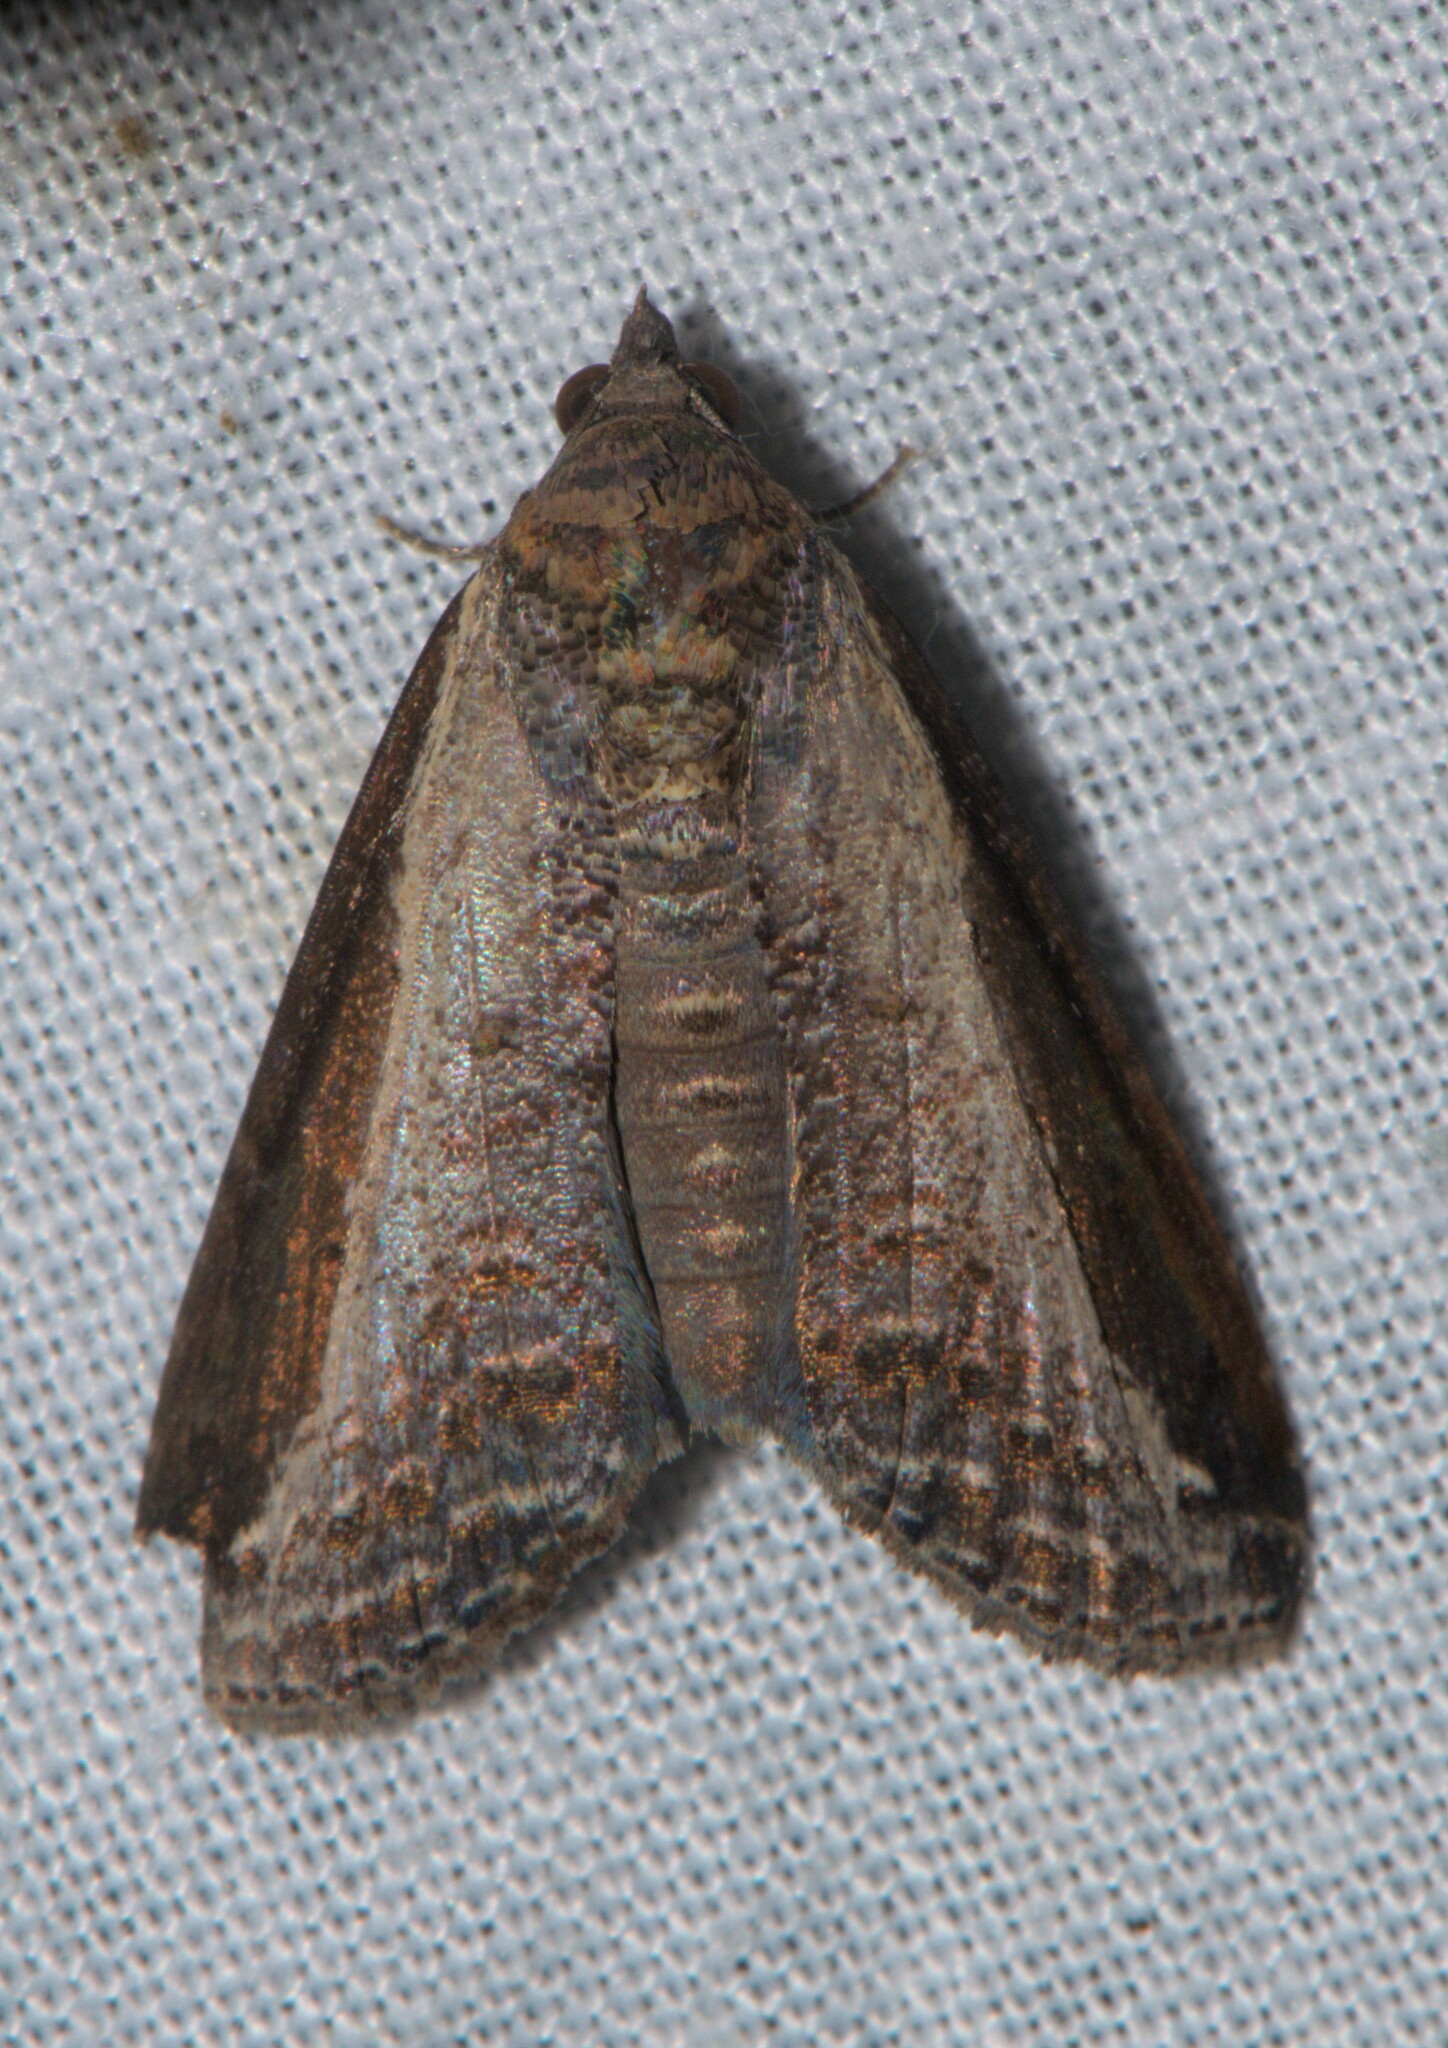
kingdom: Animalia
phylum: Arthropoda
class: Insecta
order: Lepidoptera
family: Euteliidae
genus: Lophoptera
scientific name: Lophoptera squammigera
